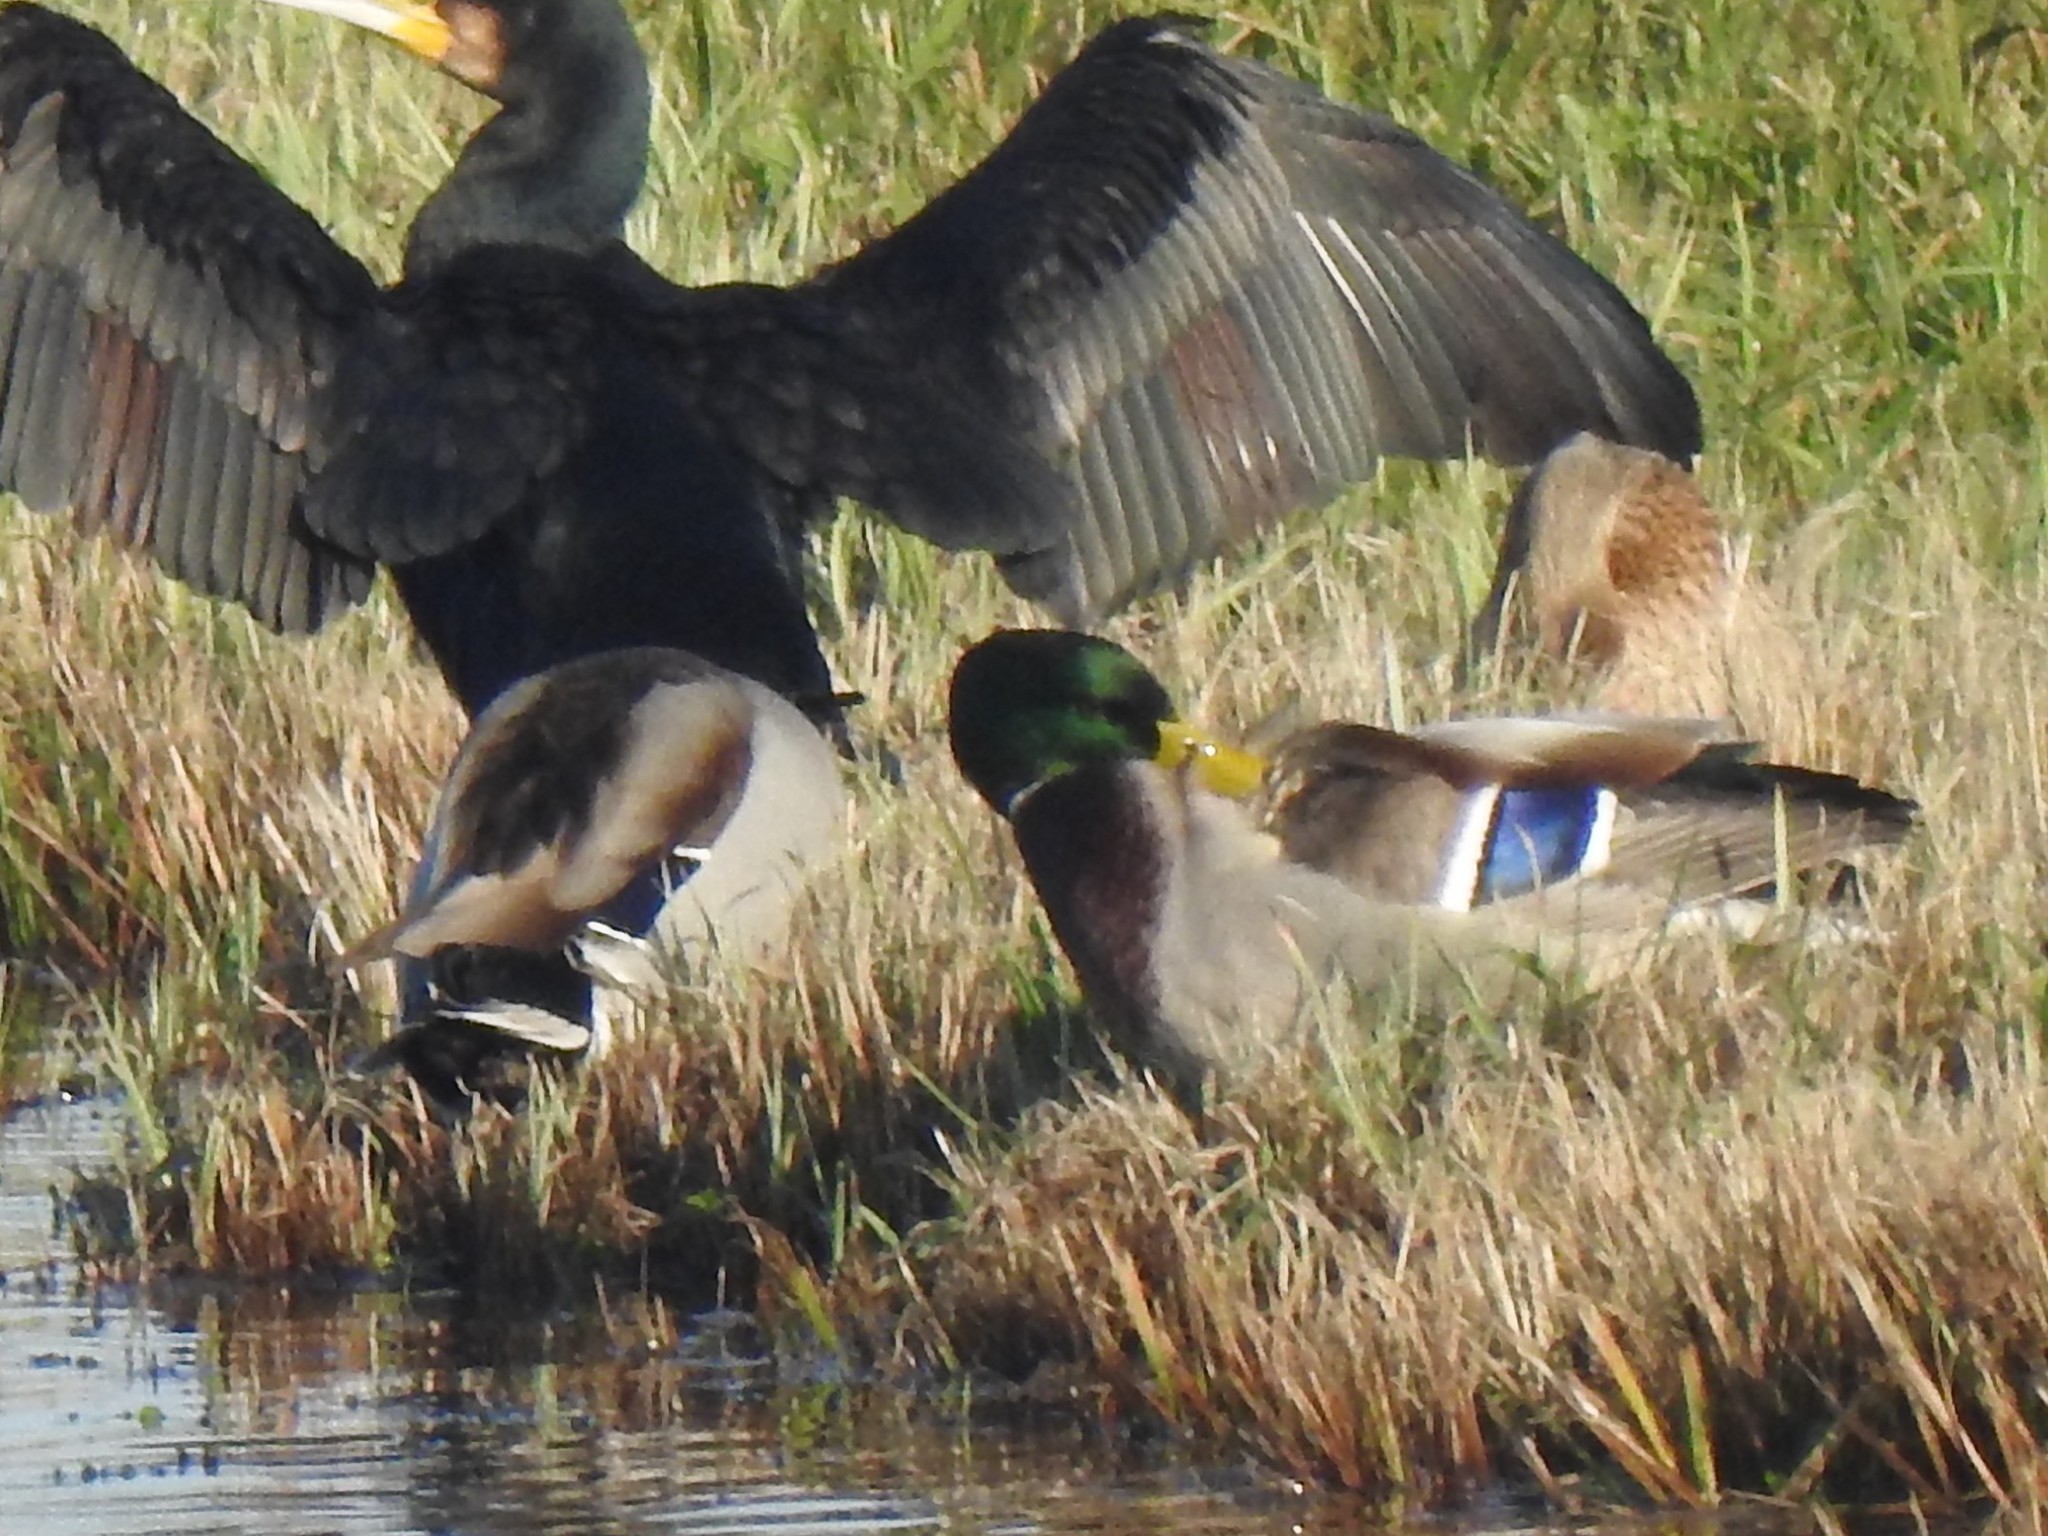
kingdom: Animalia
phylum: Chordata
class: Aves
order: Anseriformes
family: Anatidae
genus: Anas
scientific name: Anas platyrhynchos
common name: Mallard
